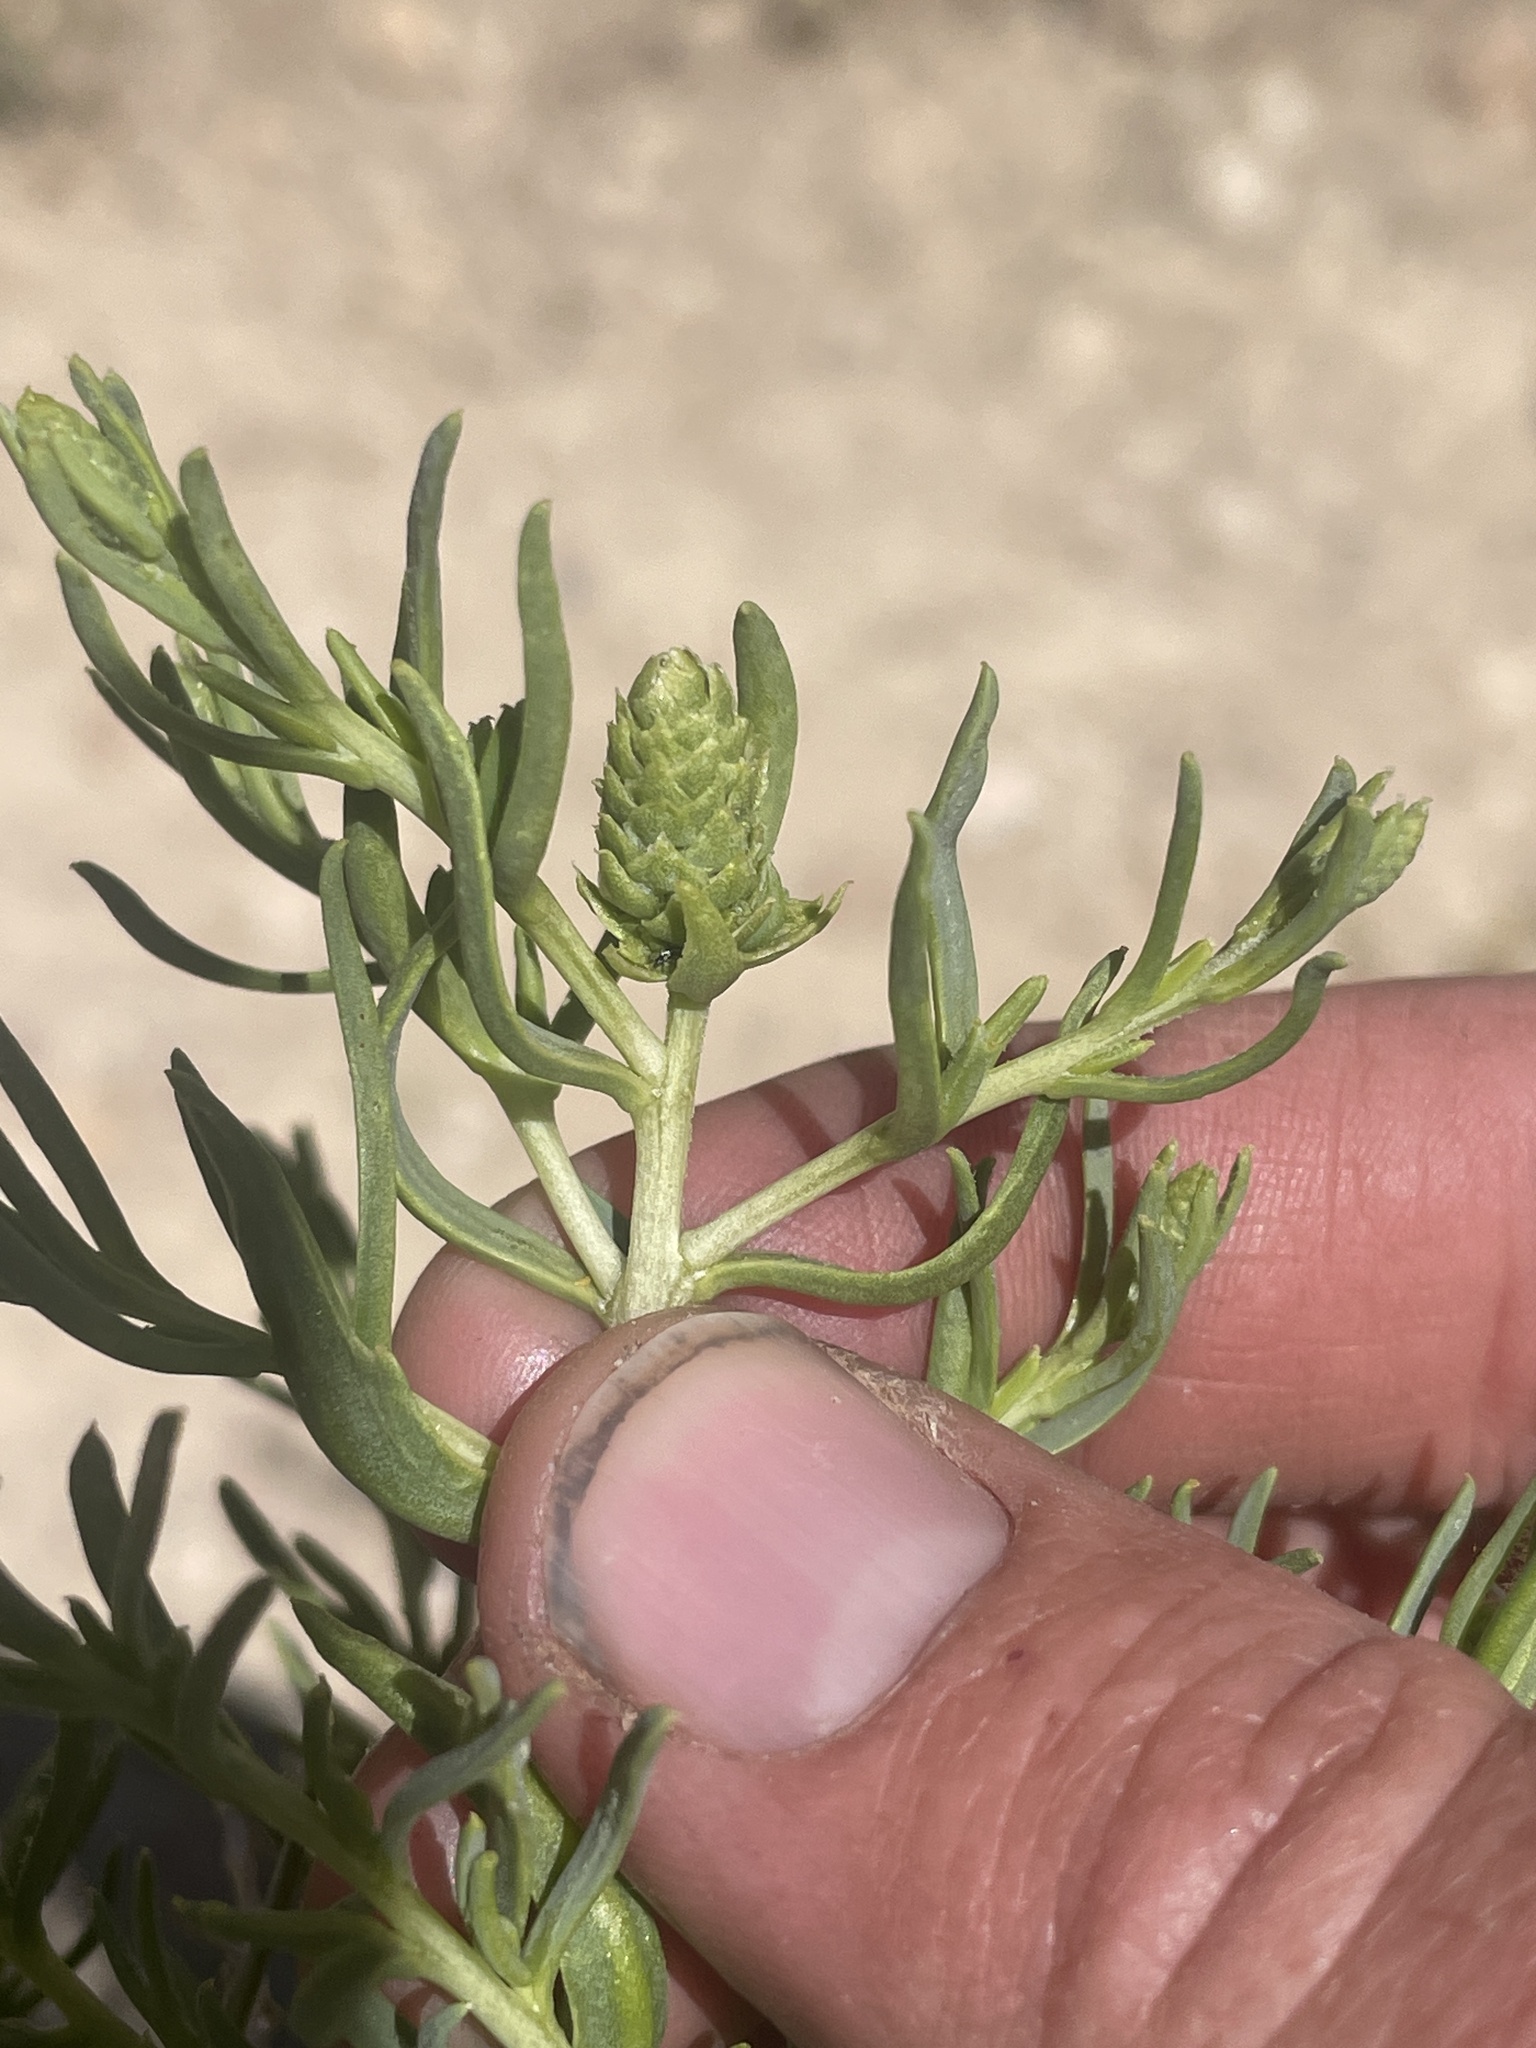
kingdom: Plantae
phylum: Tracheophyta
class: Magnoliopsida
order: Caryophyllales
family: Sarcobataceae
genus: Sarcobatus
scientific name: Sarcobatus vermiculatus
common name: Greasewood
